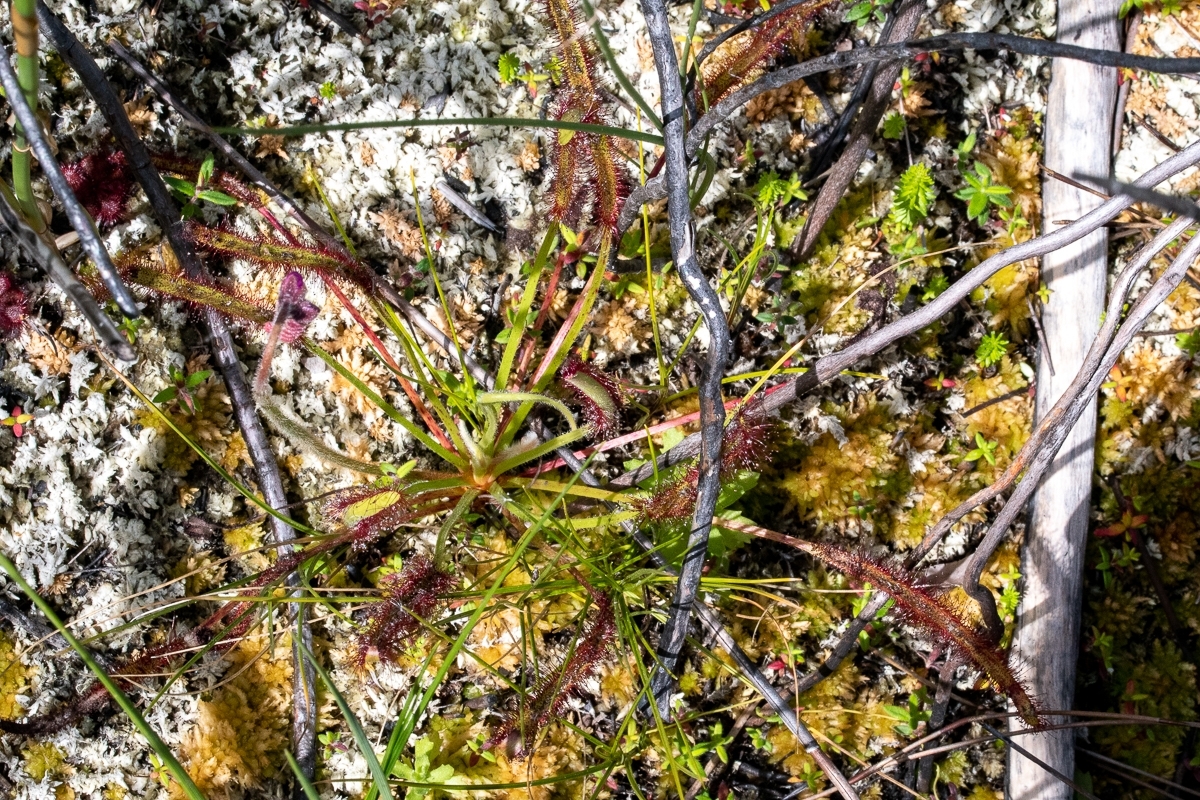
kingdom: Plantae
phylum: Tracheophyta
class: Magnoliopsida
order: Caryophyllales
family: Droseraceae
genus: Drosera
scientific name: Drosera capensis
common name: Cape sundew
